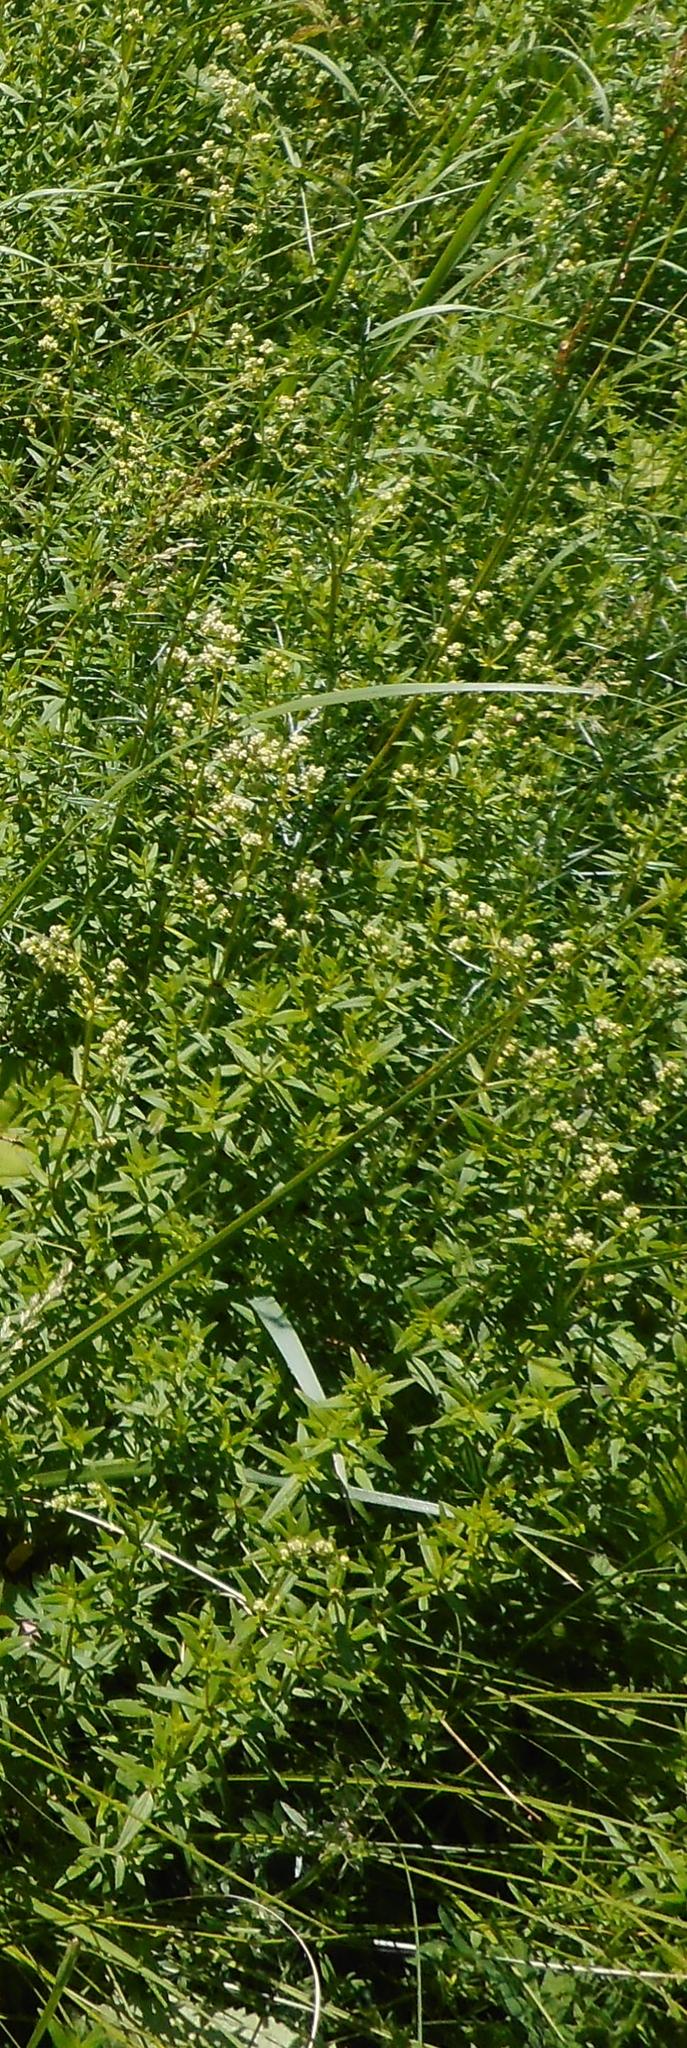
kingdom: Plantae
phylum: Tracheophyta
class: Magnoliopsida
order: Gentianales
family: Rubiaceae
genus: Galium
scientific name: Galium boreale
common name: Northern bedstraw
